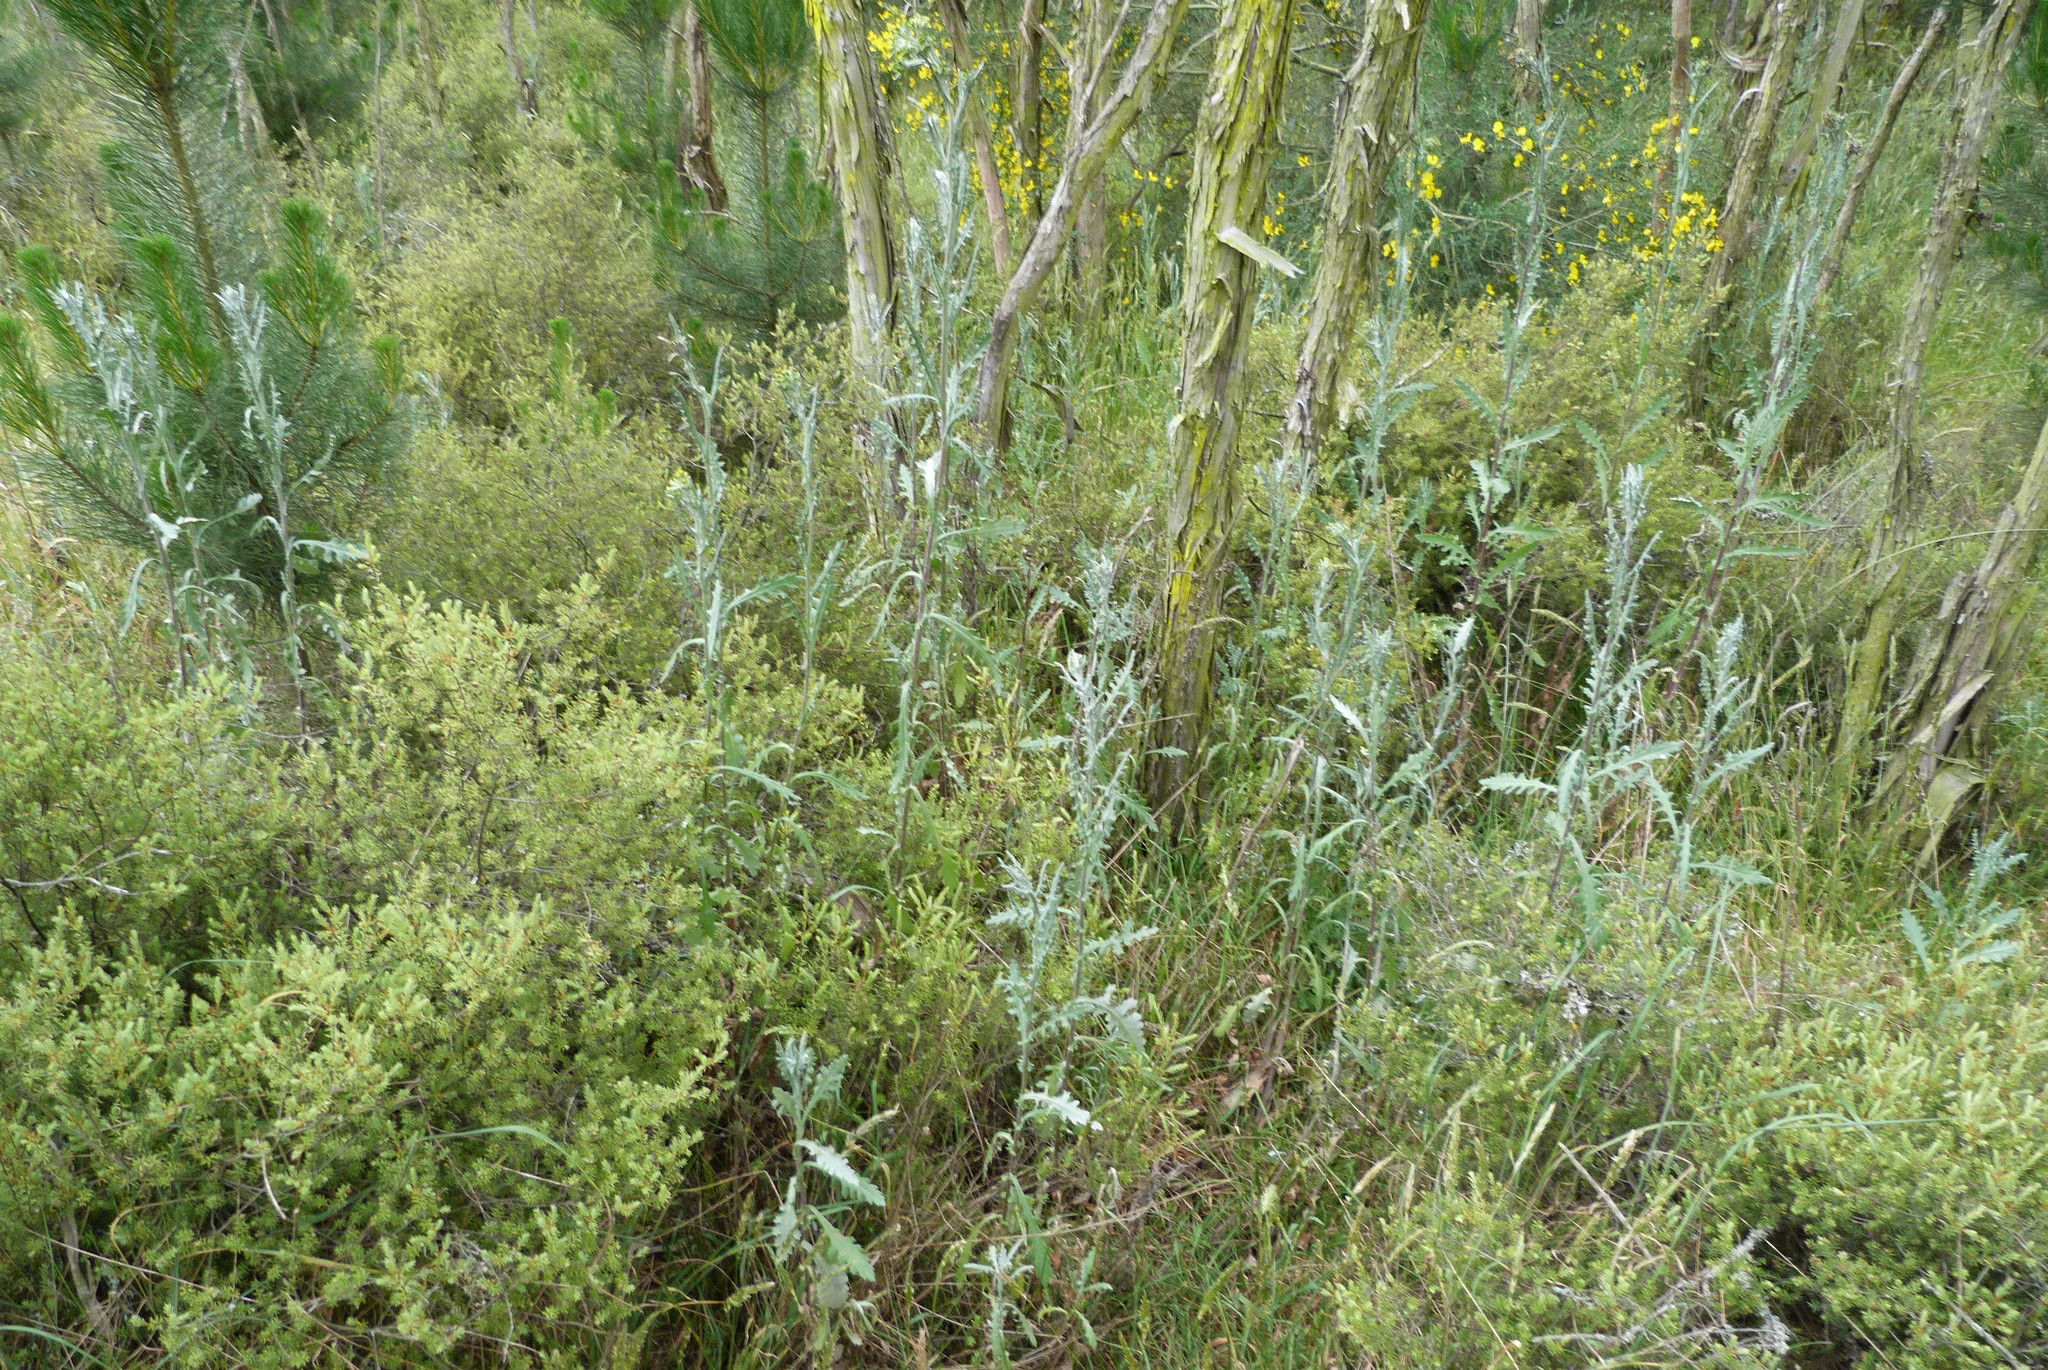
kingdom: Plantae
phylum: Tracheophyta
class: Magnoliopsida
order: Asterales
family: Asteraceae
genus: Senecio
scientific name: Senecio glomeratus
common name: Cutleaf burnweed
